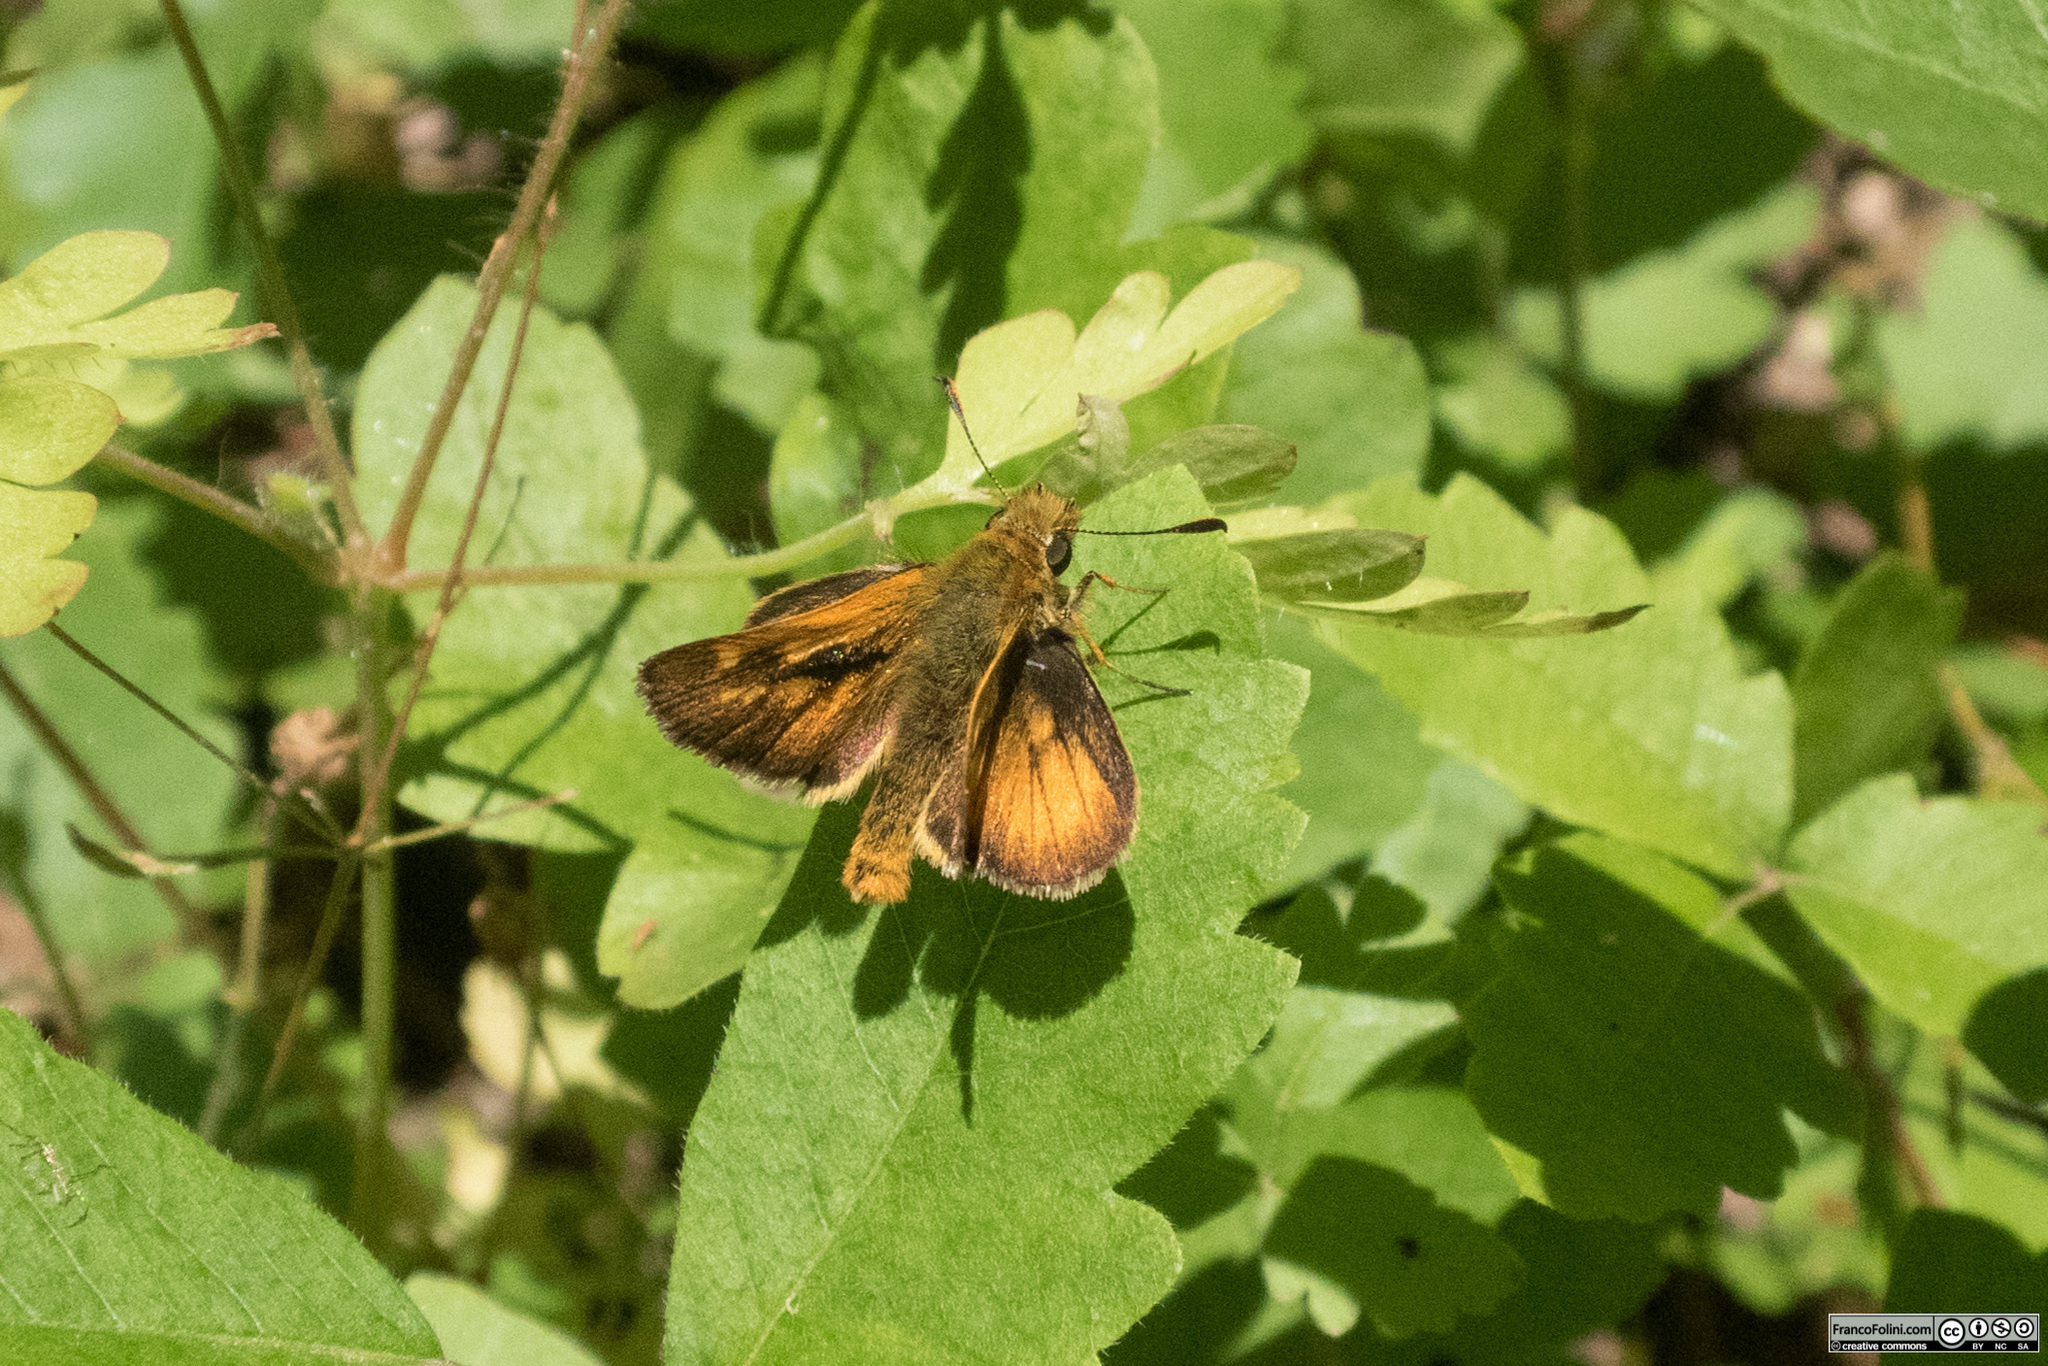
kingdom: Animalia
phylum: Arthropoda
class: Insecta
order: Lepidoptera
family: Hesperiidae
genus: Ochlodes
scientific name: Ochlodes agricola
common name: Rural skipper
